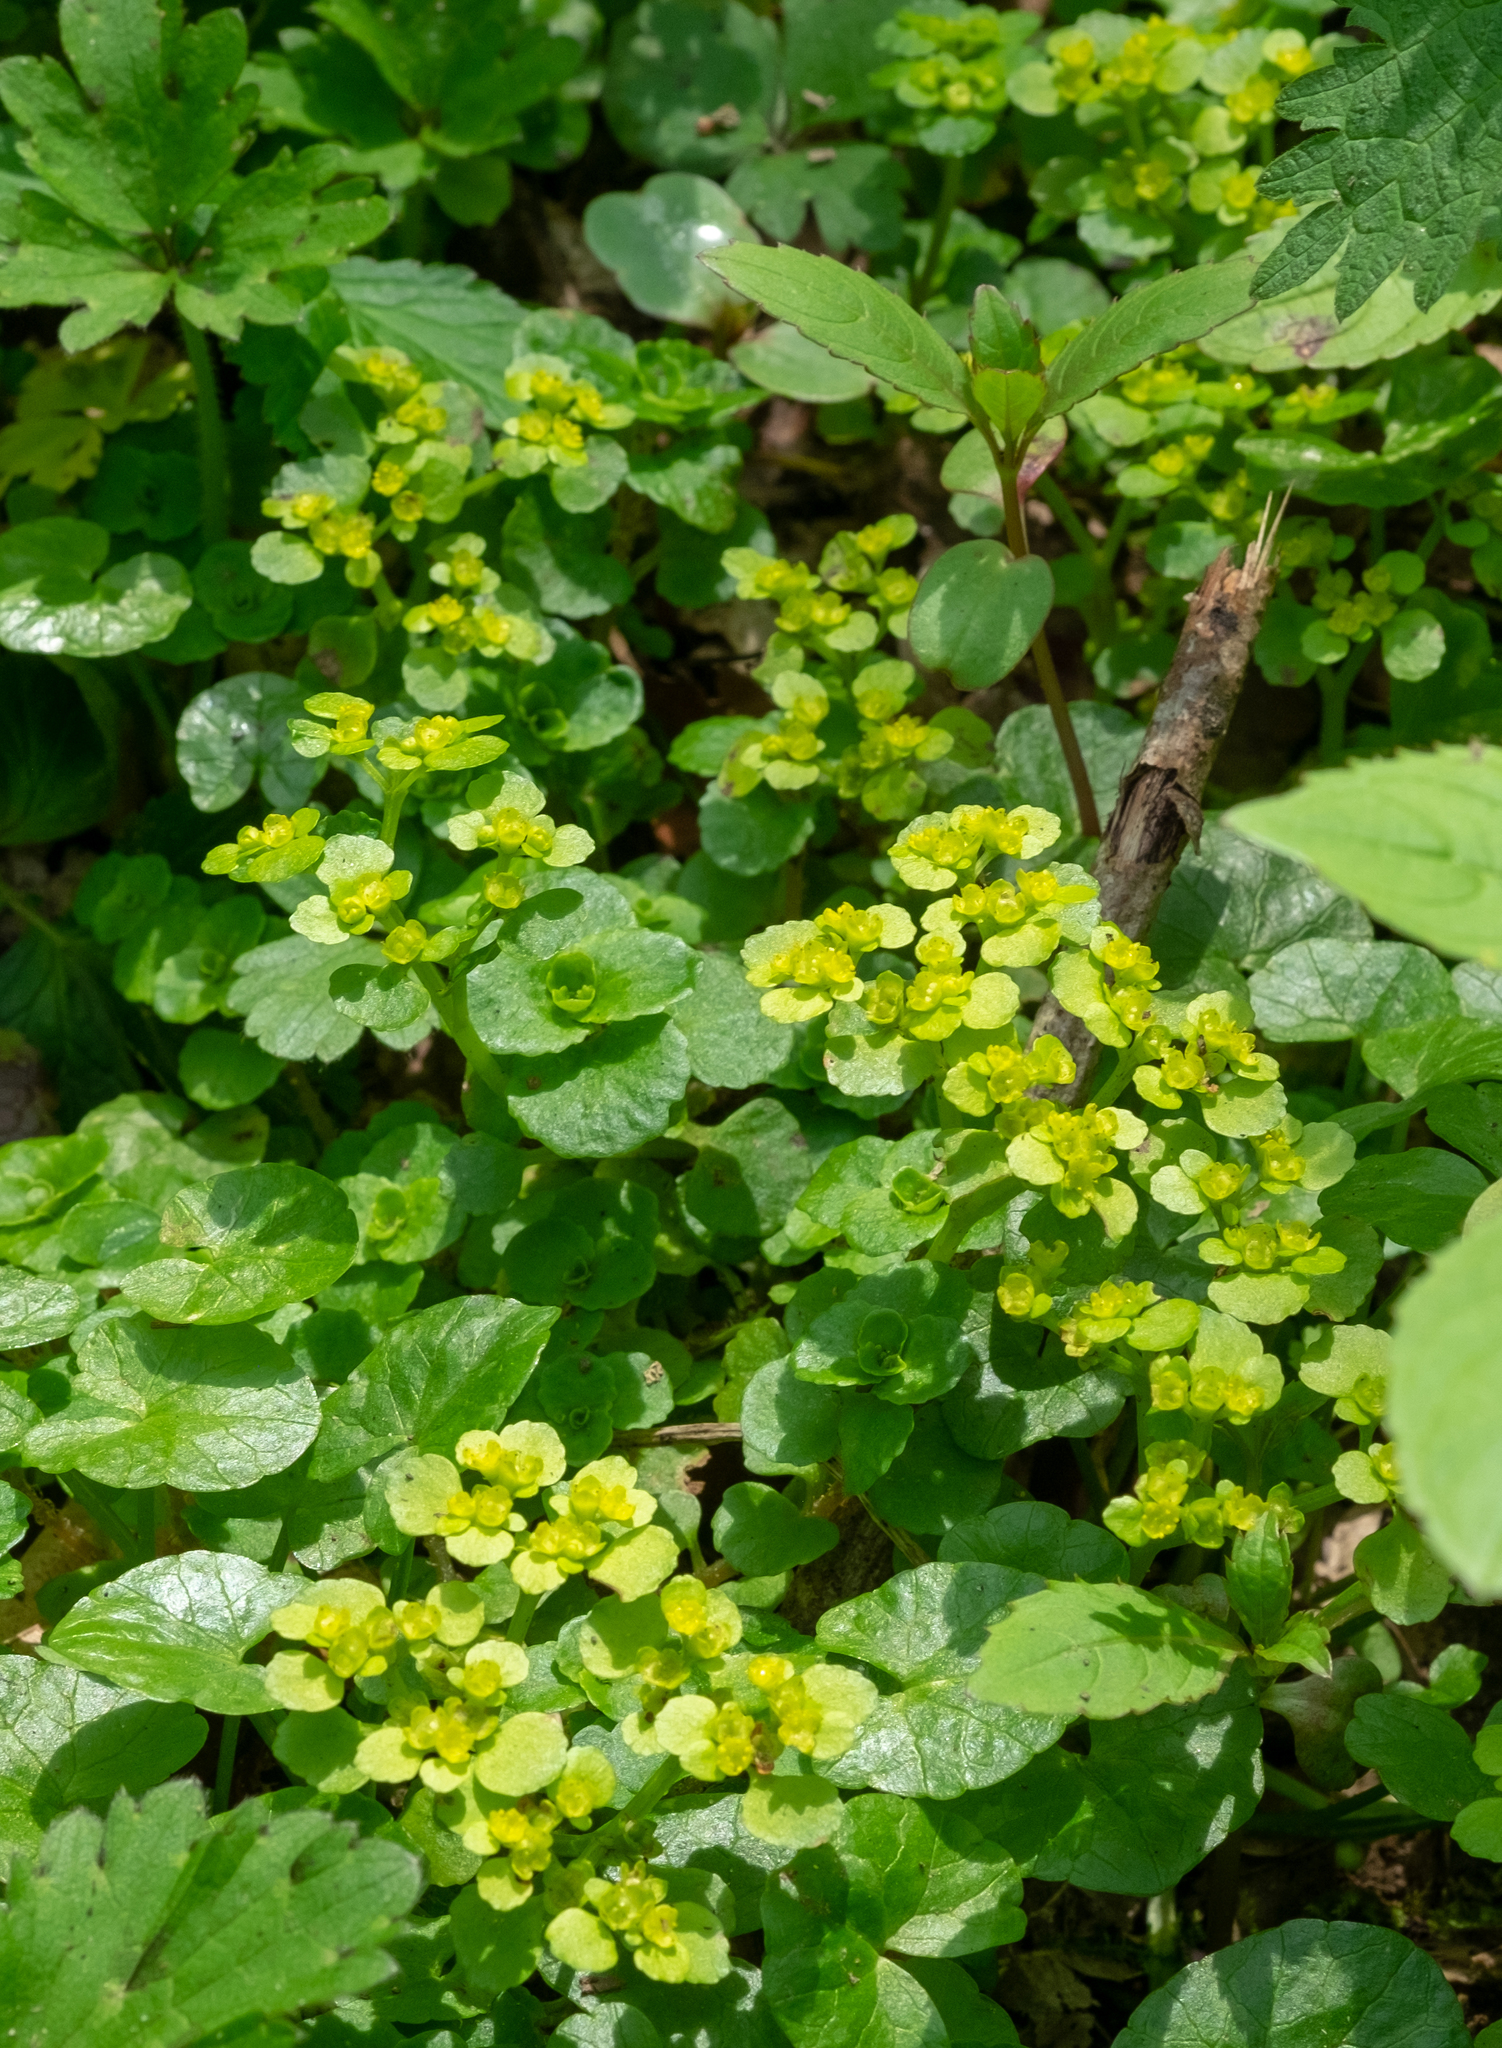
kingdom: Plantae
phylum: Tracheophyta
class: Magnoliopsida
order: Saxifragales
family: Saxifragaceae
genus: Chrysosplenium
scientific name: Chrysosplenium oppositifolium
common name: Opposite-leaved golden-saxifrage
